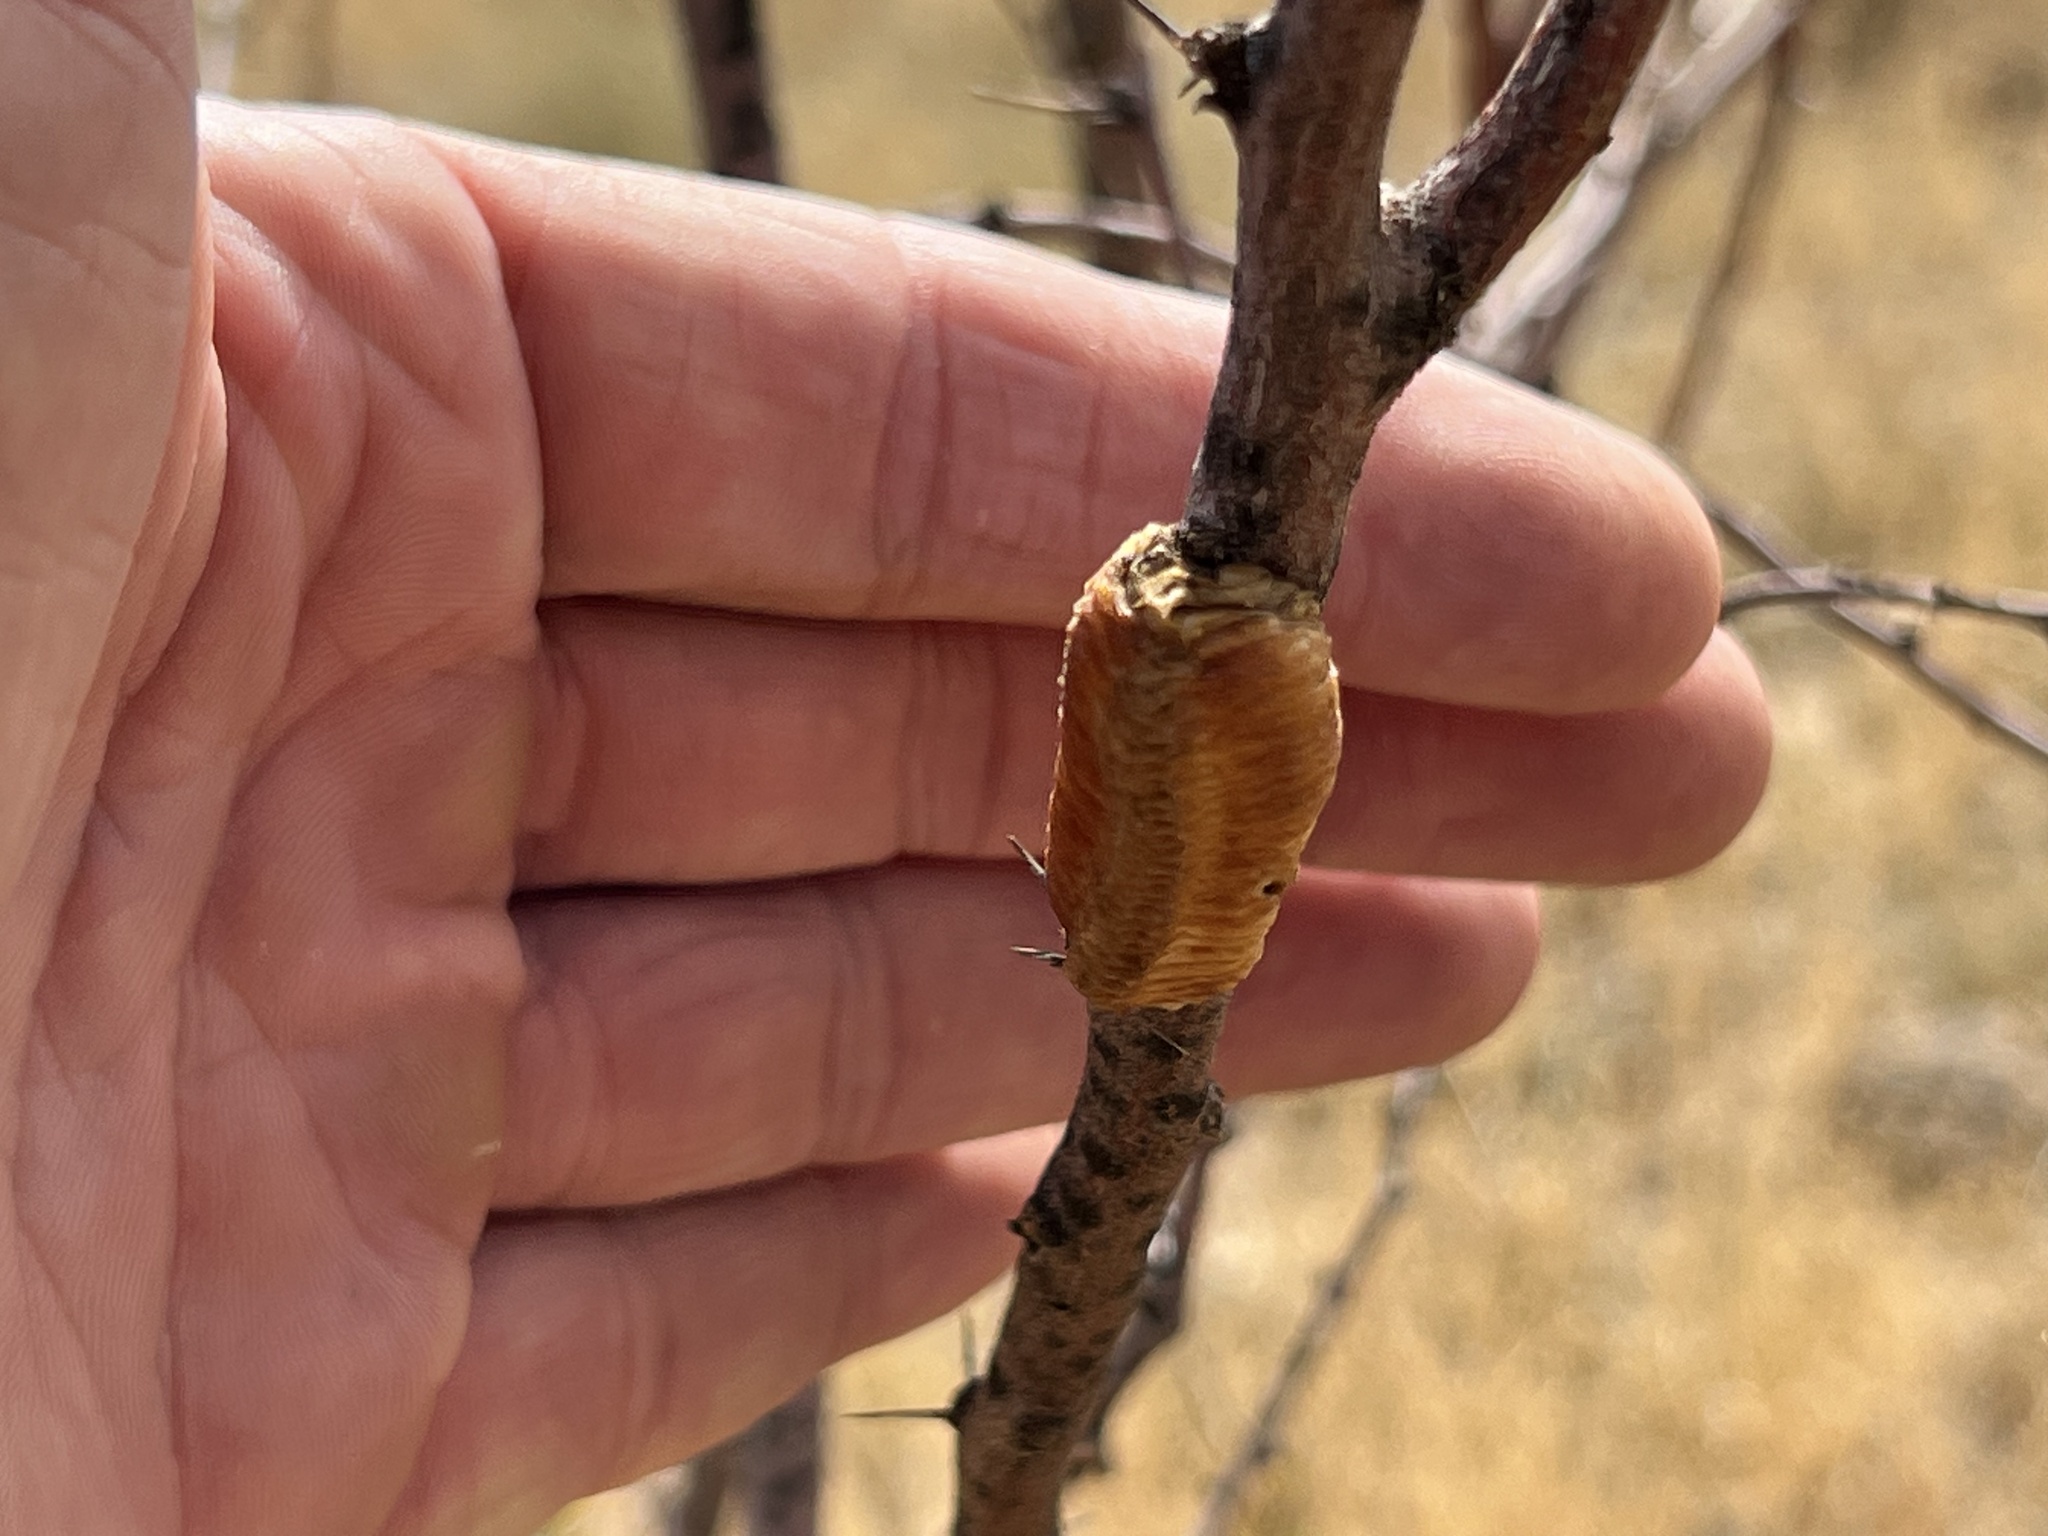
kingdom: Animalia
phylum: Arthropoda
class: Insecta
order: Mantodea
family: Mantidae
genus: Stagmomantis
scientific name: Stagmomantis limbata
